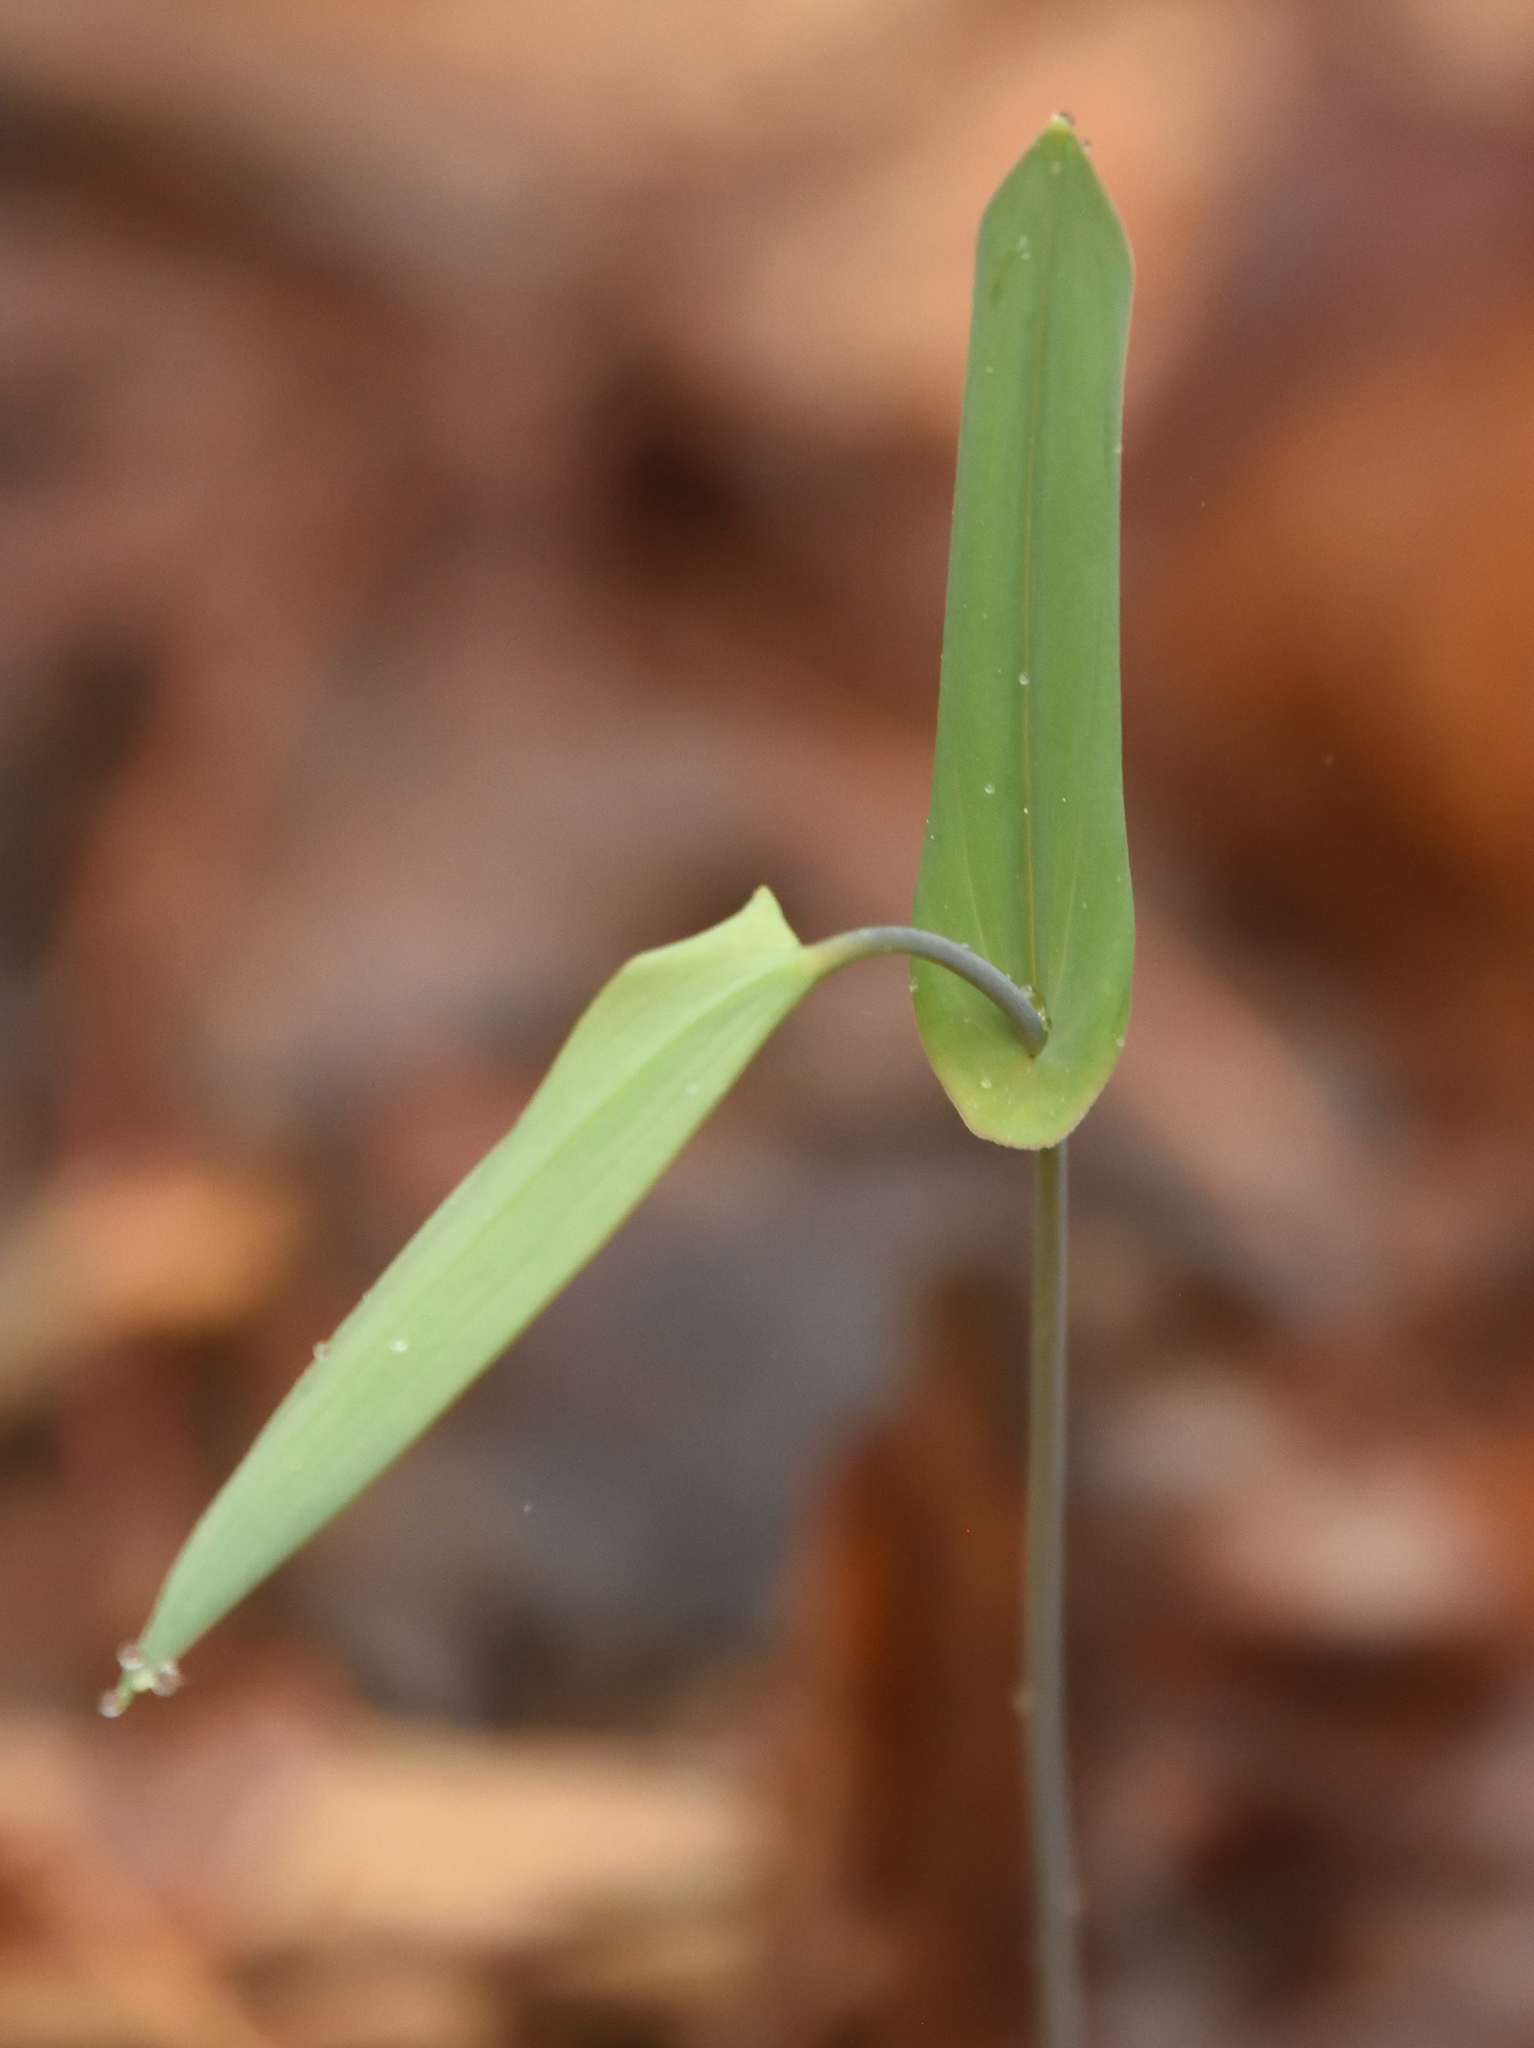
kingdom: Plantae
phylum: Tracheophyta
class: Liliopsida
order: Liliales
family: Colchicaceae
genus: Uvularia
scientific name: Uvularia perfoliata
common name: Perfoliate bellwort
